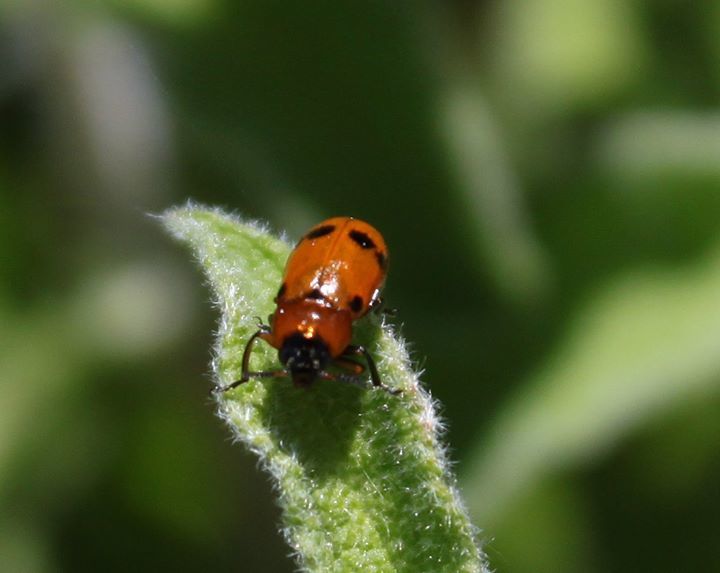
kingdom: Animalia
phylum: Arthropoda
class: Insecta
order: Coleoptera
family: Chrysomelidae
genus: Macrolenes
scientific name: Macrolenes dentipes
